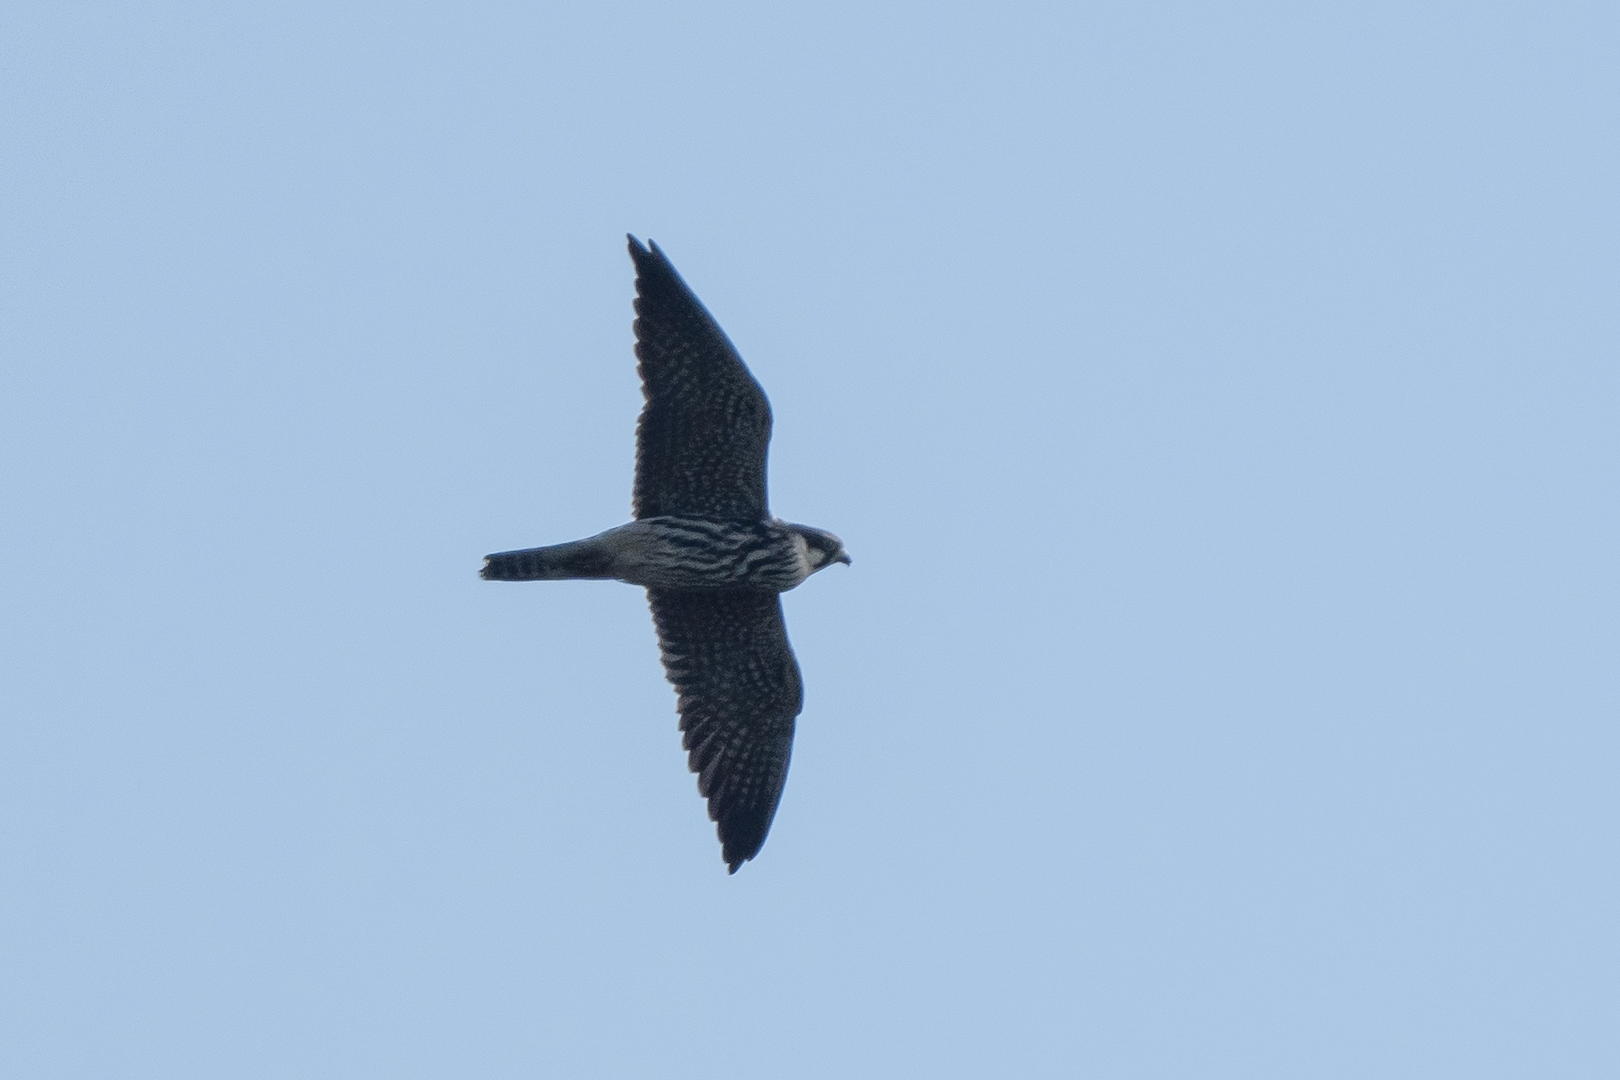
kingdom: Animalia
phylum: Chordata
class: Aves
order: Falconiformes
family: Falconidae
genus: Falco
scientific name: Falco subbuteo
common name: Eurasian hobby
